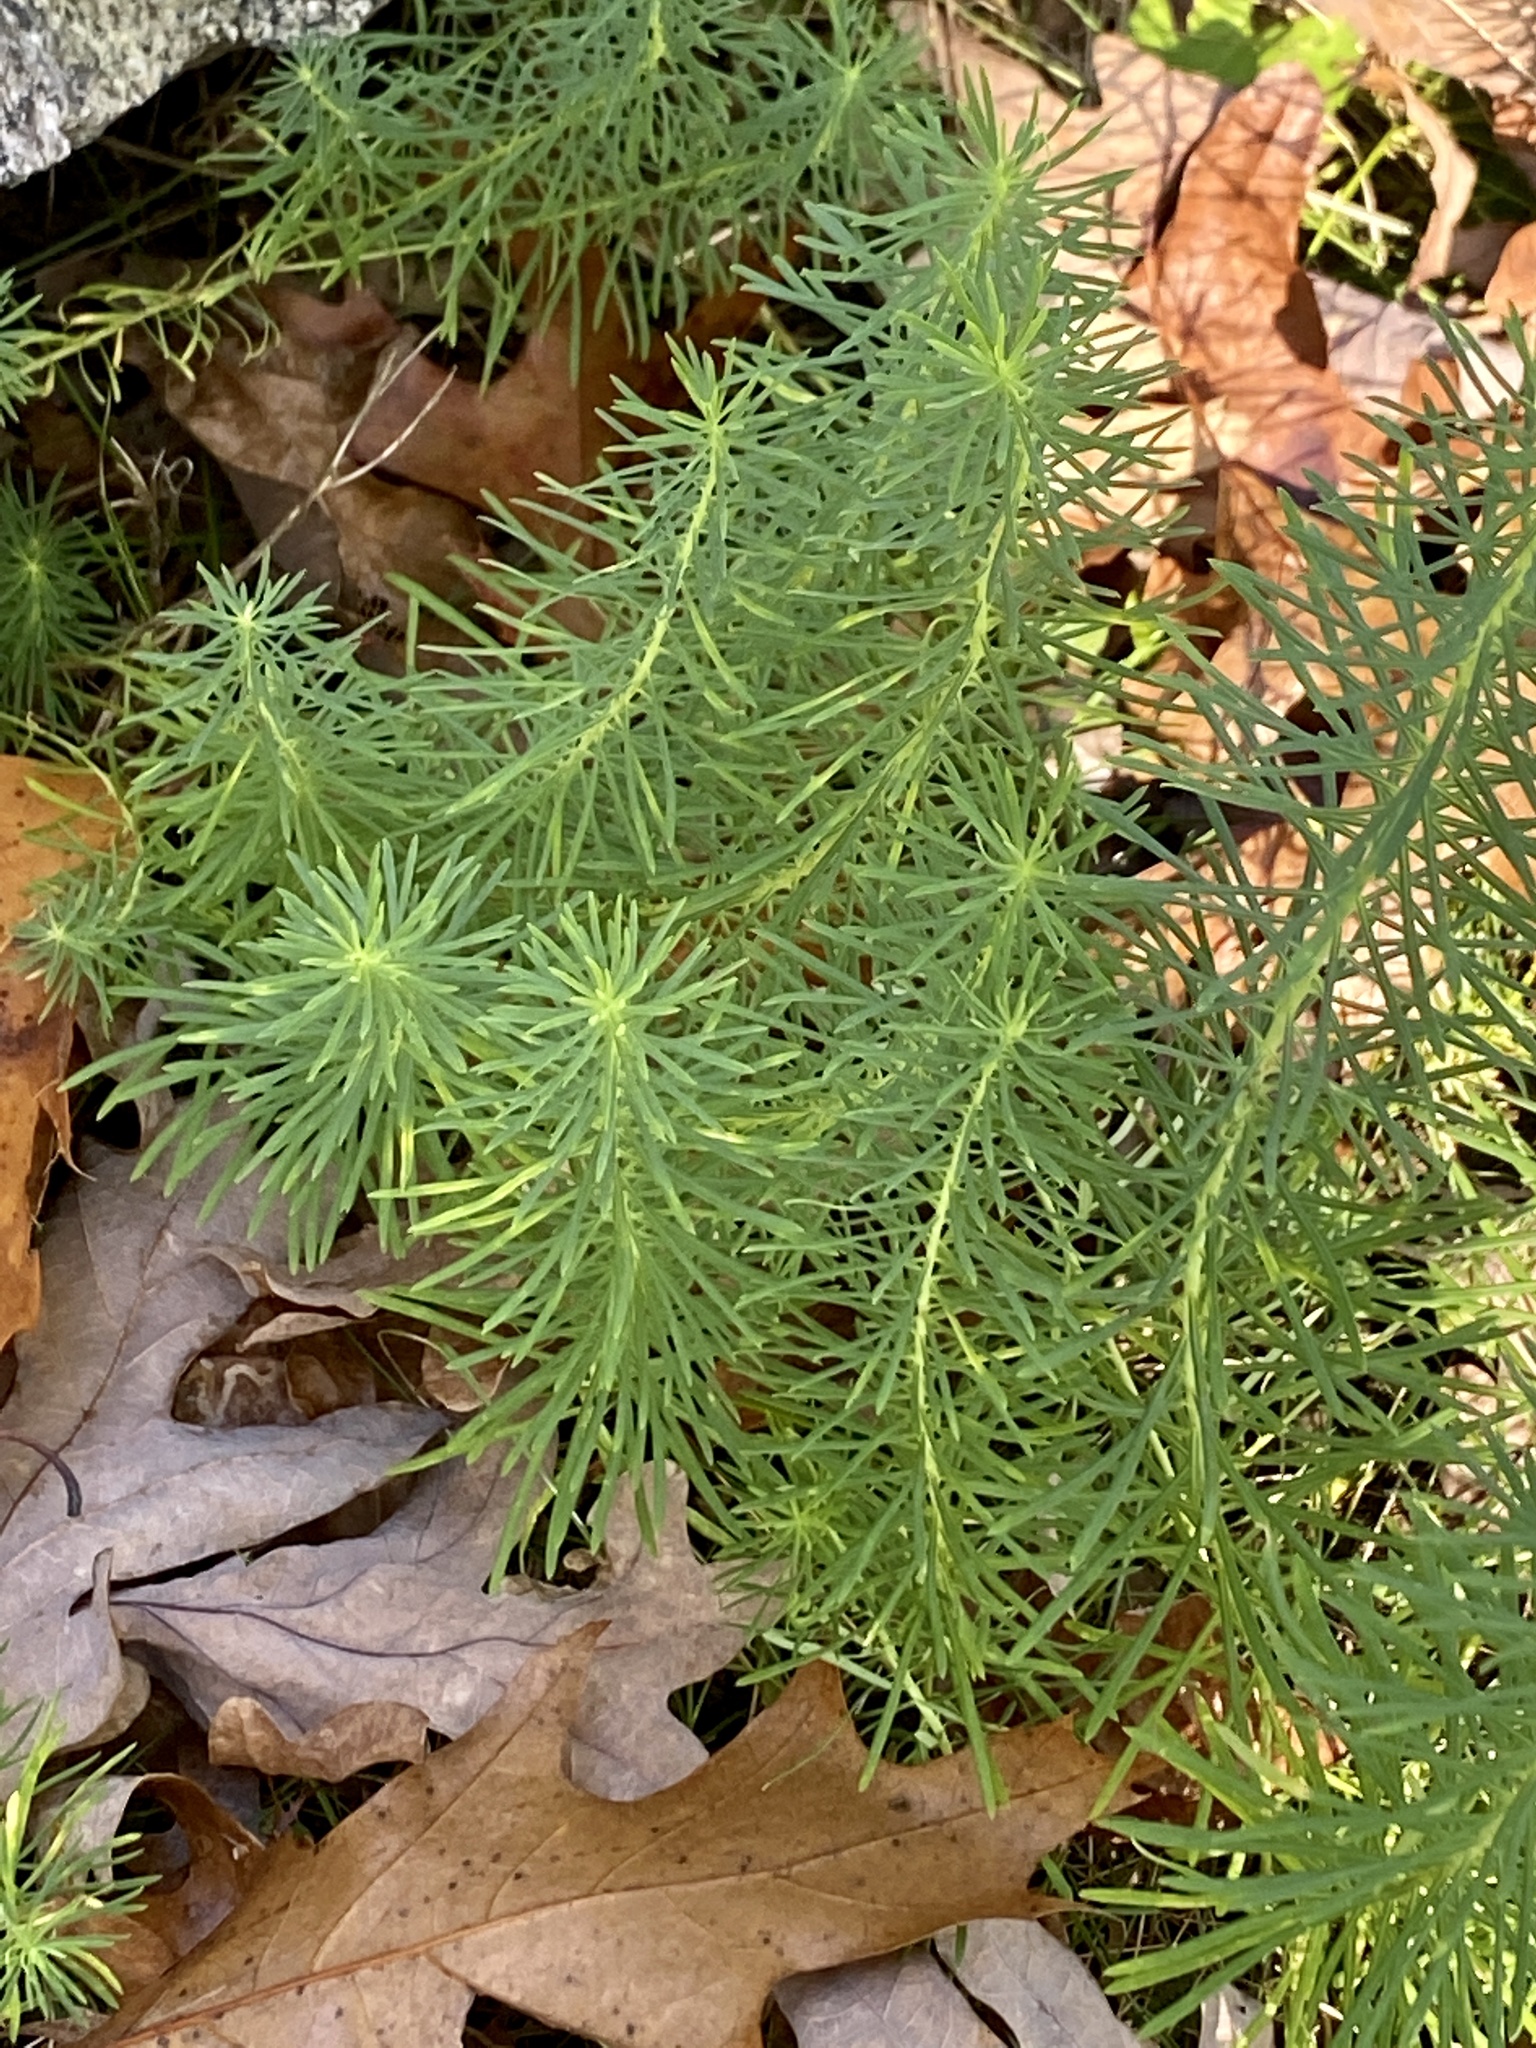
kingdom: Plantae
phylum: Tracheophyta
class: Magnoliopsida
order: Malpighiales
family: Euphorbiaceae
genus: Euphorbia
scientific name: Euphorbia cyparissias
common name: Cypress spurge
